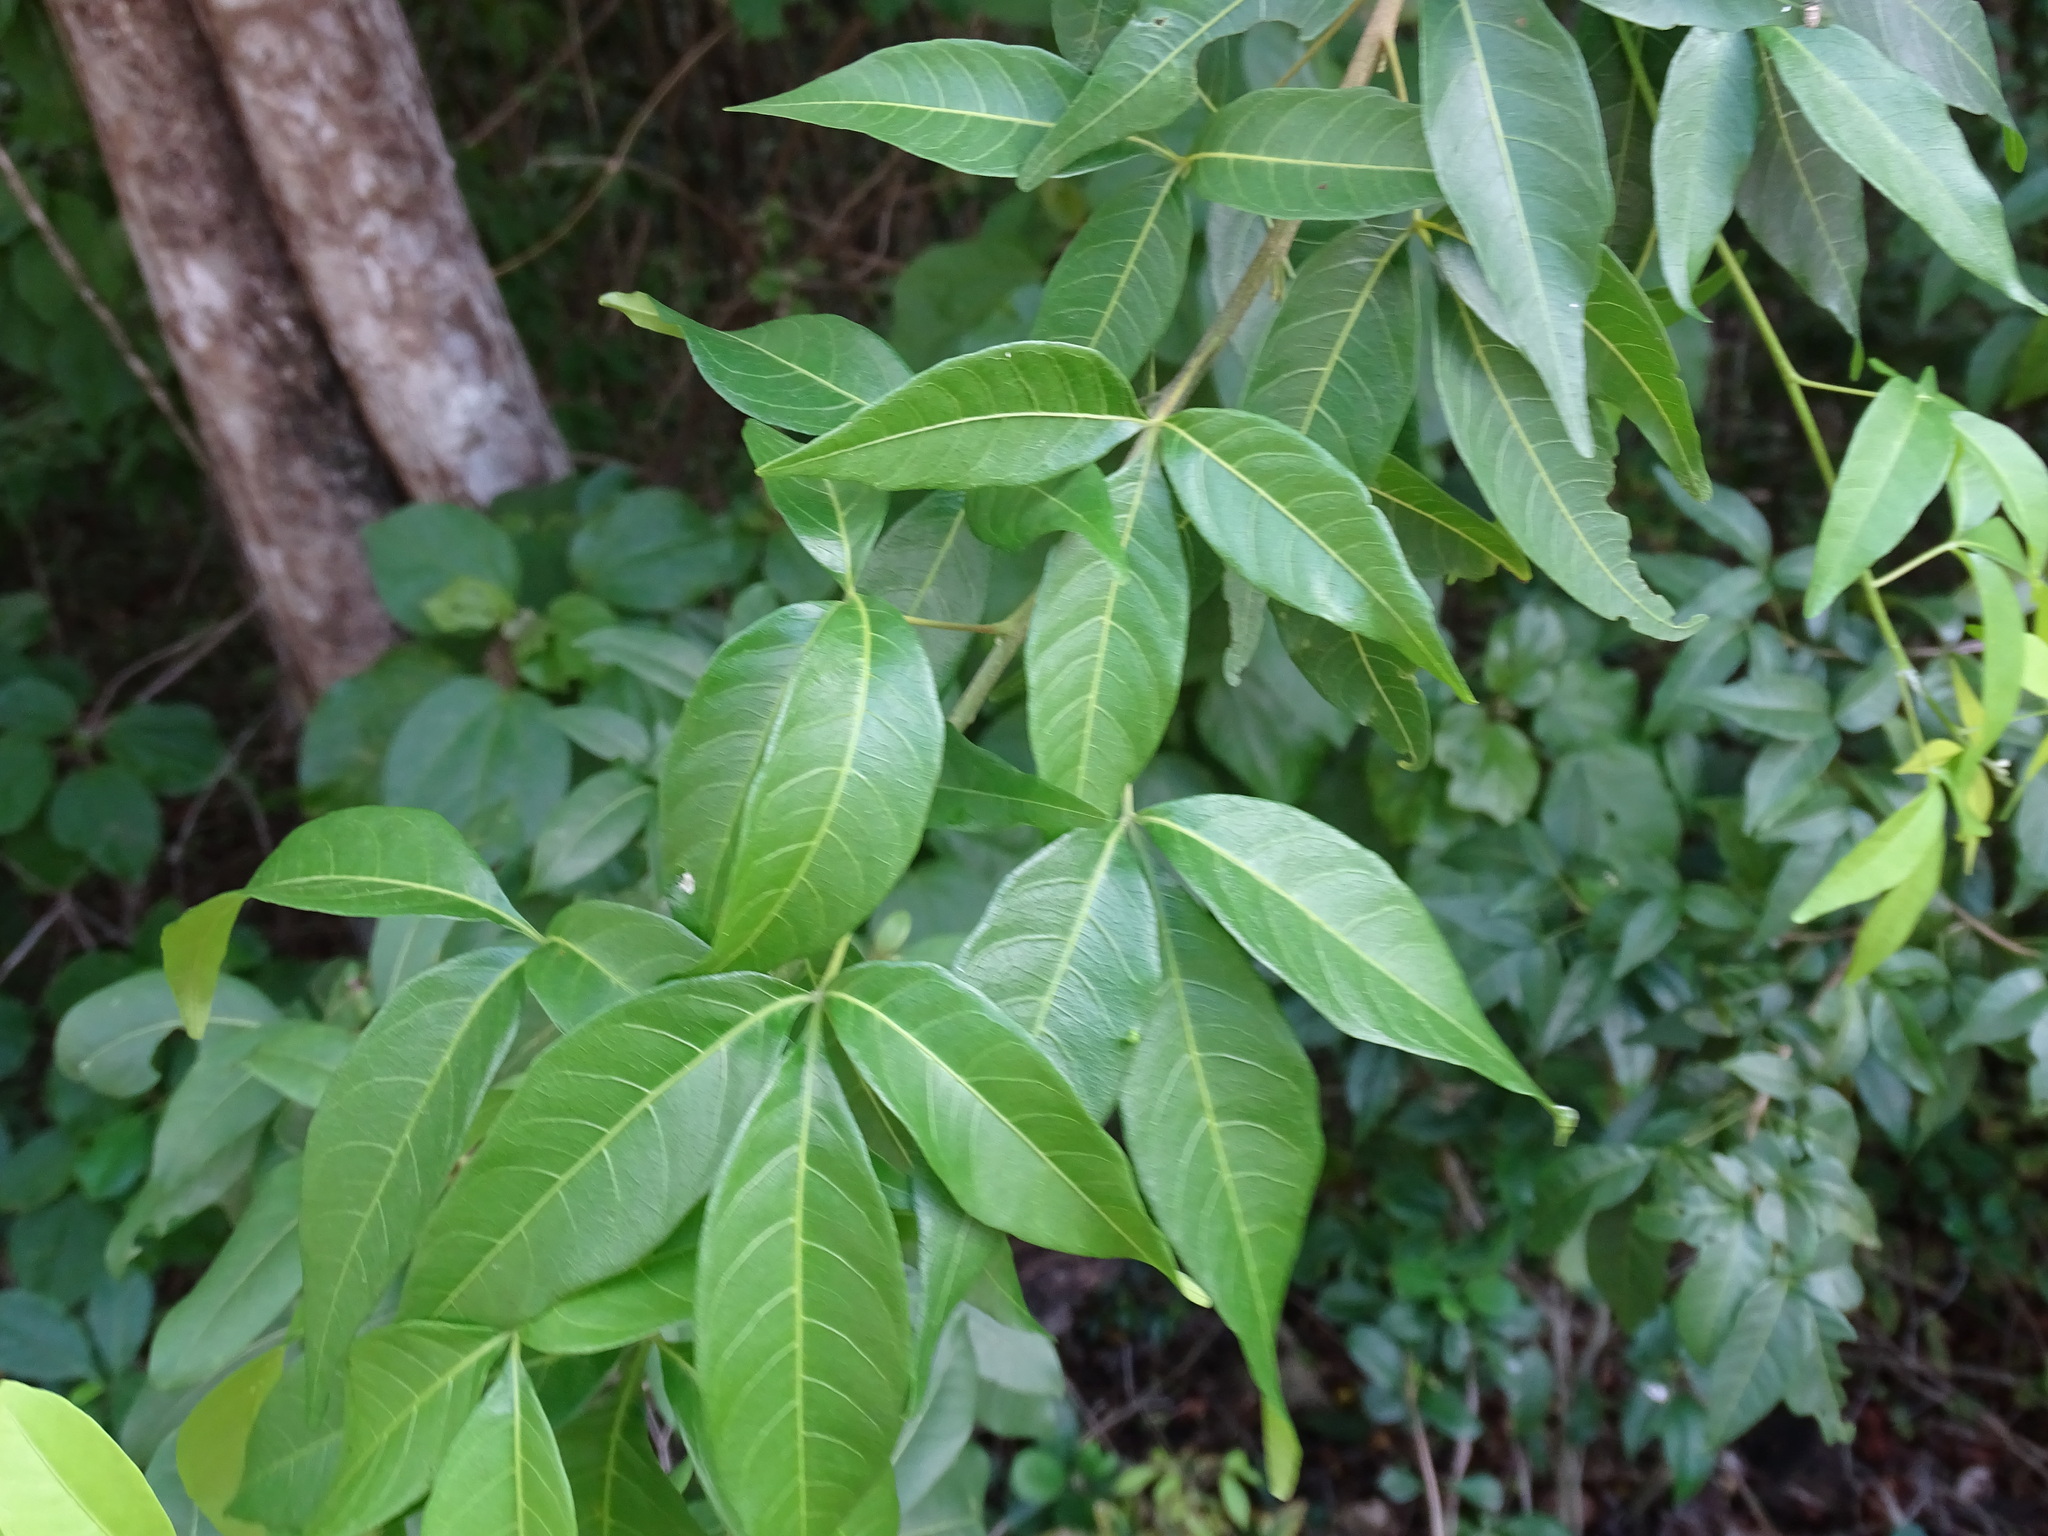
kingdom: Plantae
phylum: Tracheophyta
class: Magnoliopsida
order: Sapindales
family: Sapindaceae
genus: Thouinia
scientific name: Thouinia paucidentata
